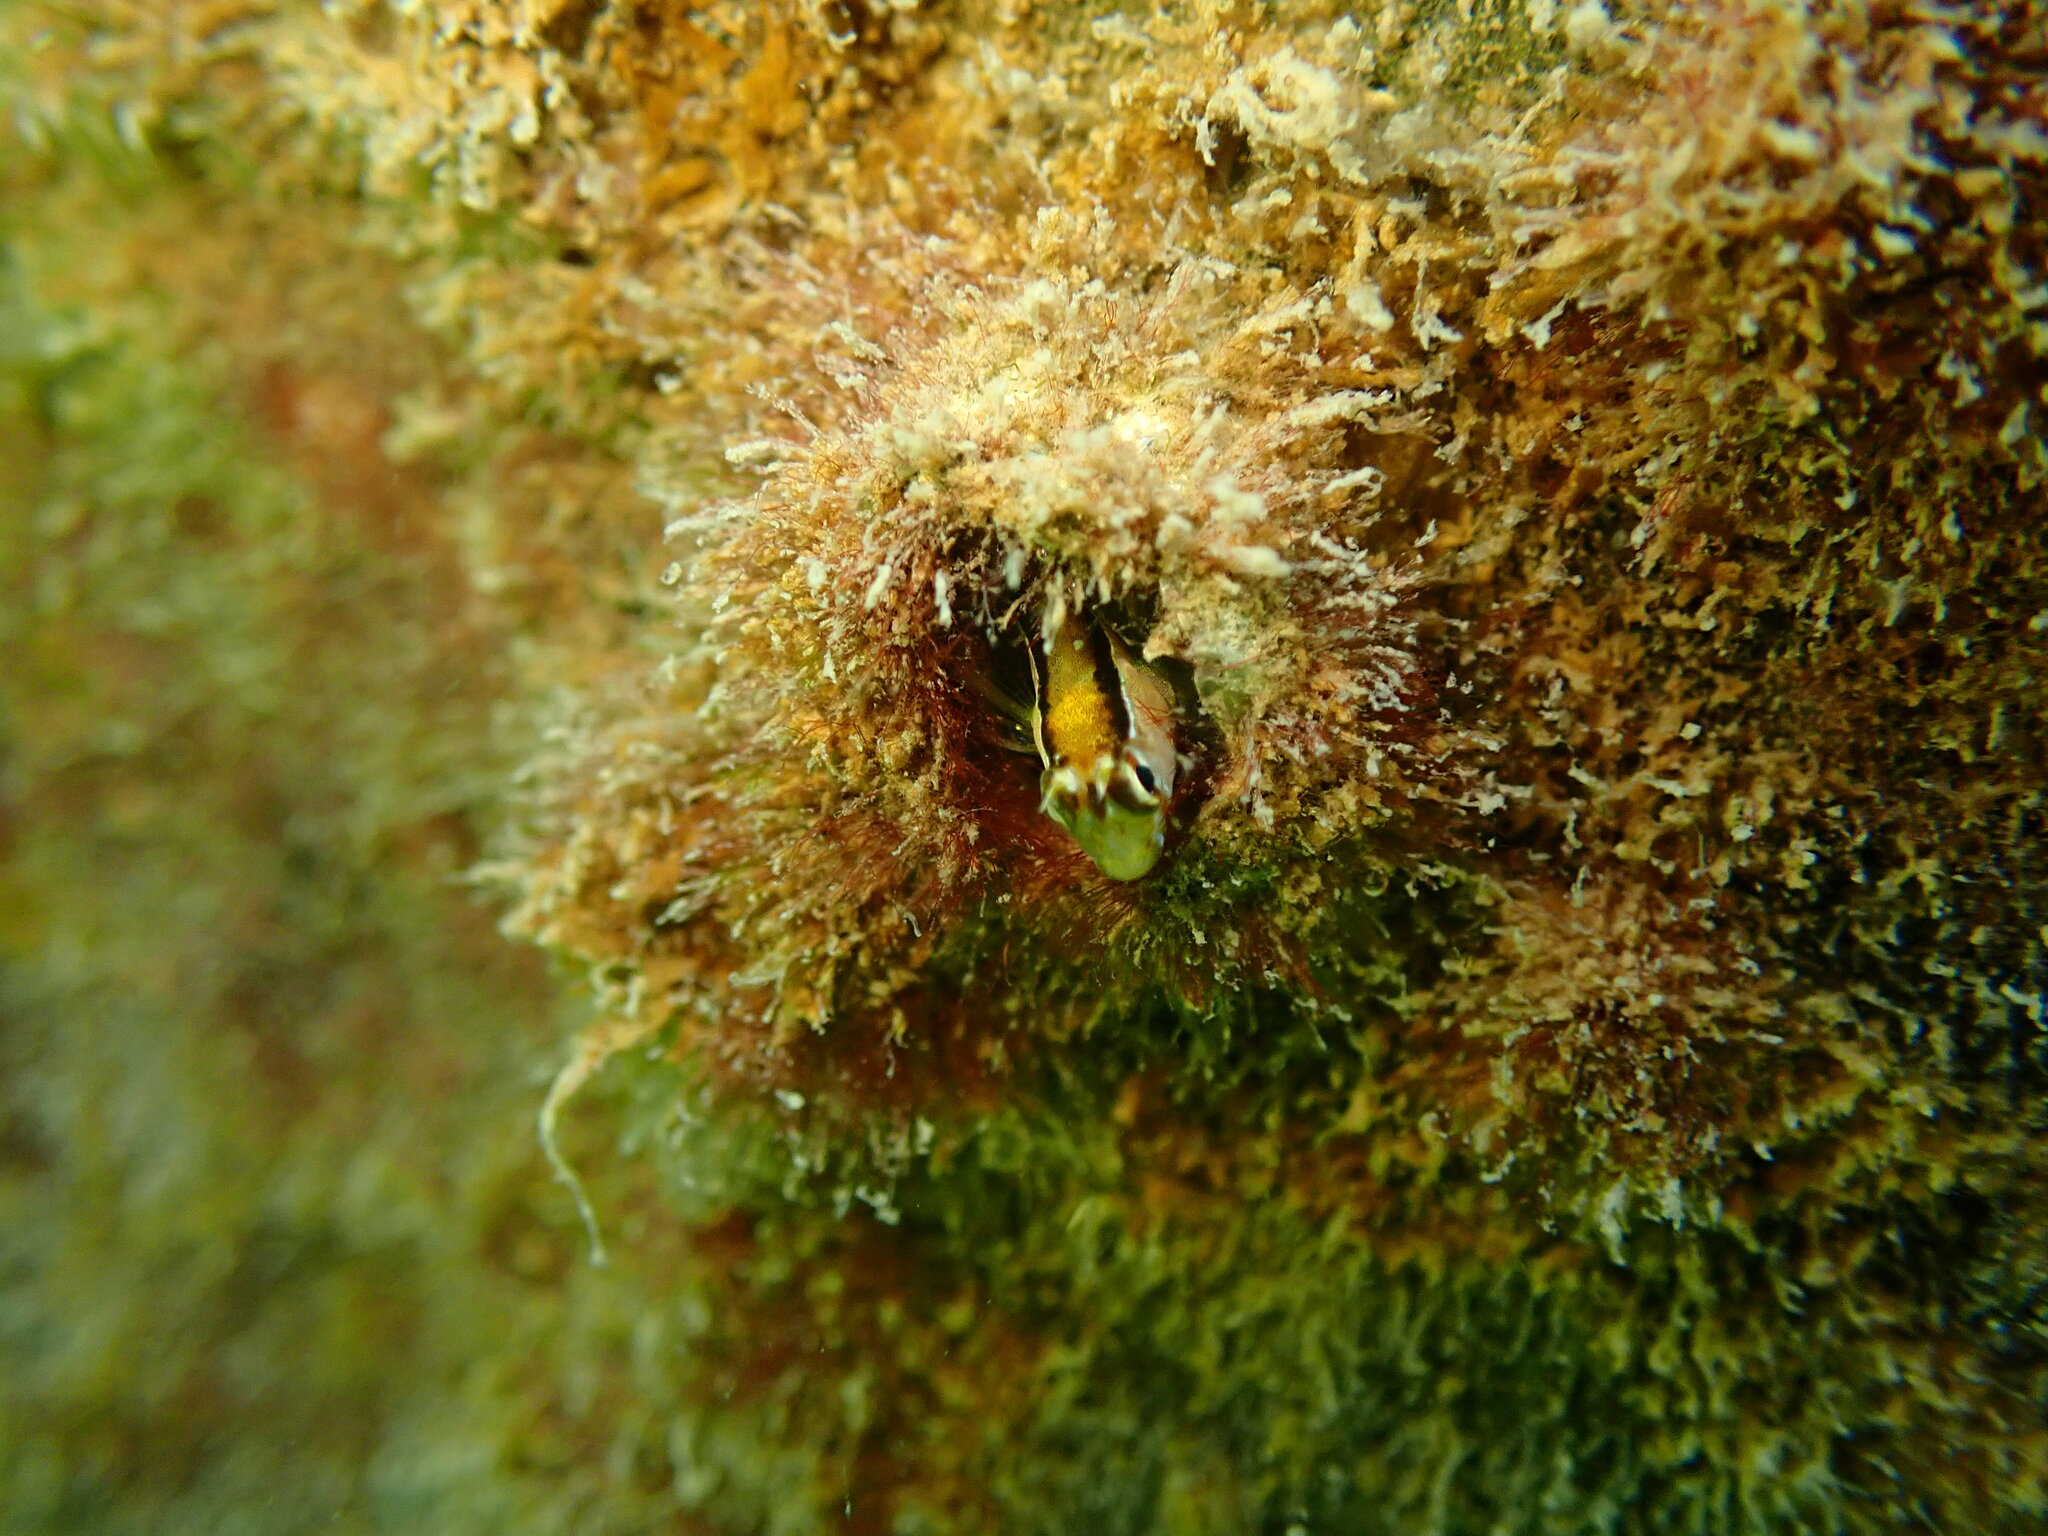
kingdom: Animalia
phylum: Chordata
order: Perciformes
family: Blenniidae
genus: Parablennius
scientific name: Parablennius laticlavius
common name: Crested blenny
